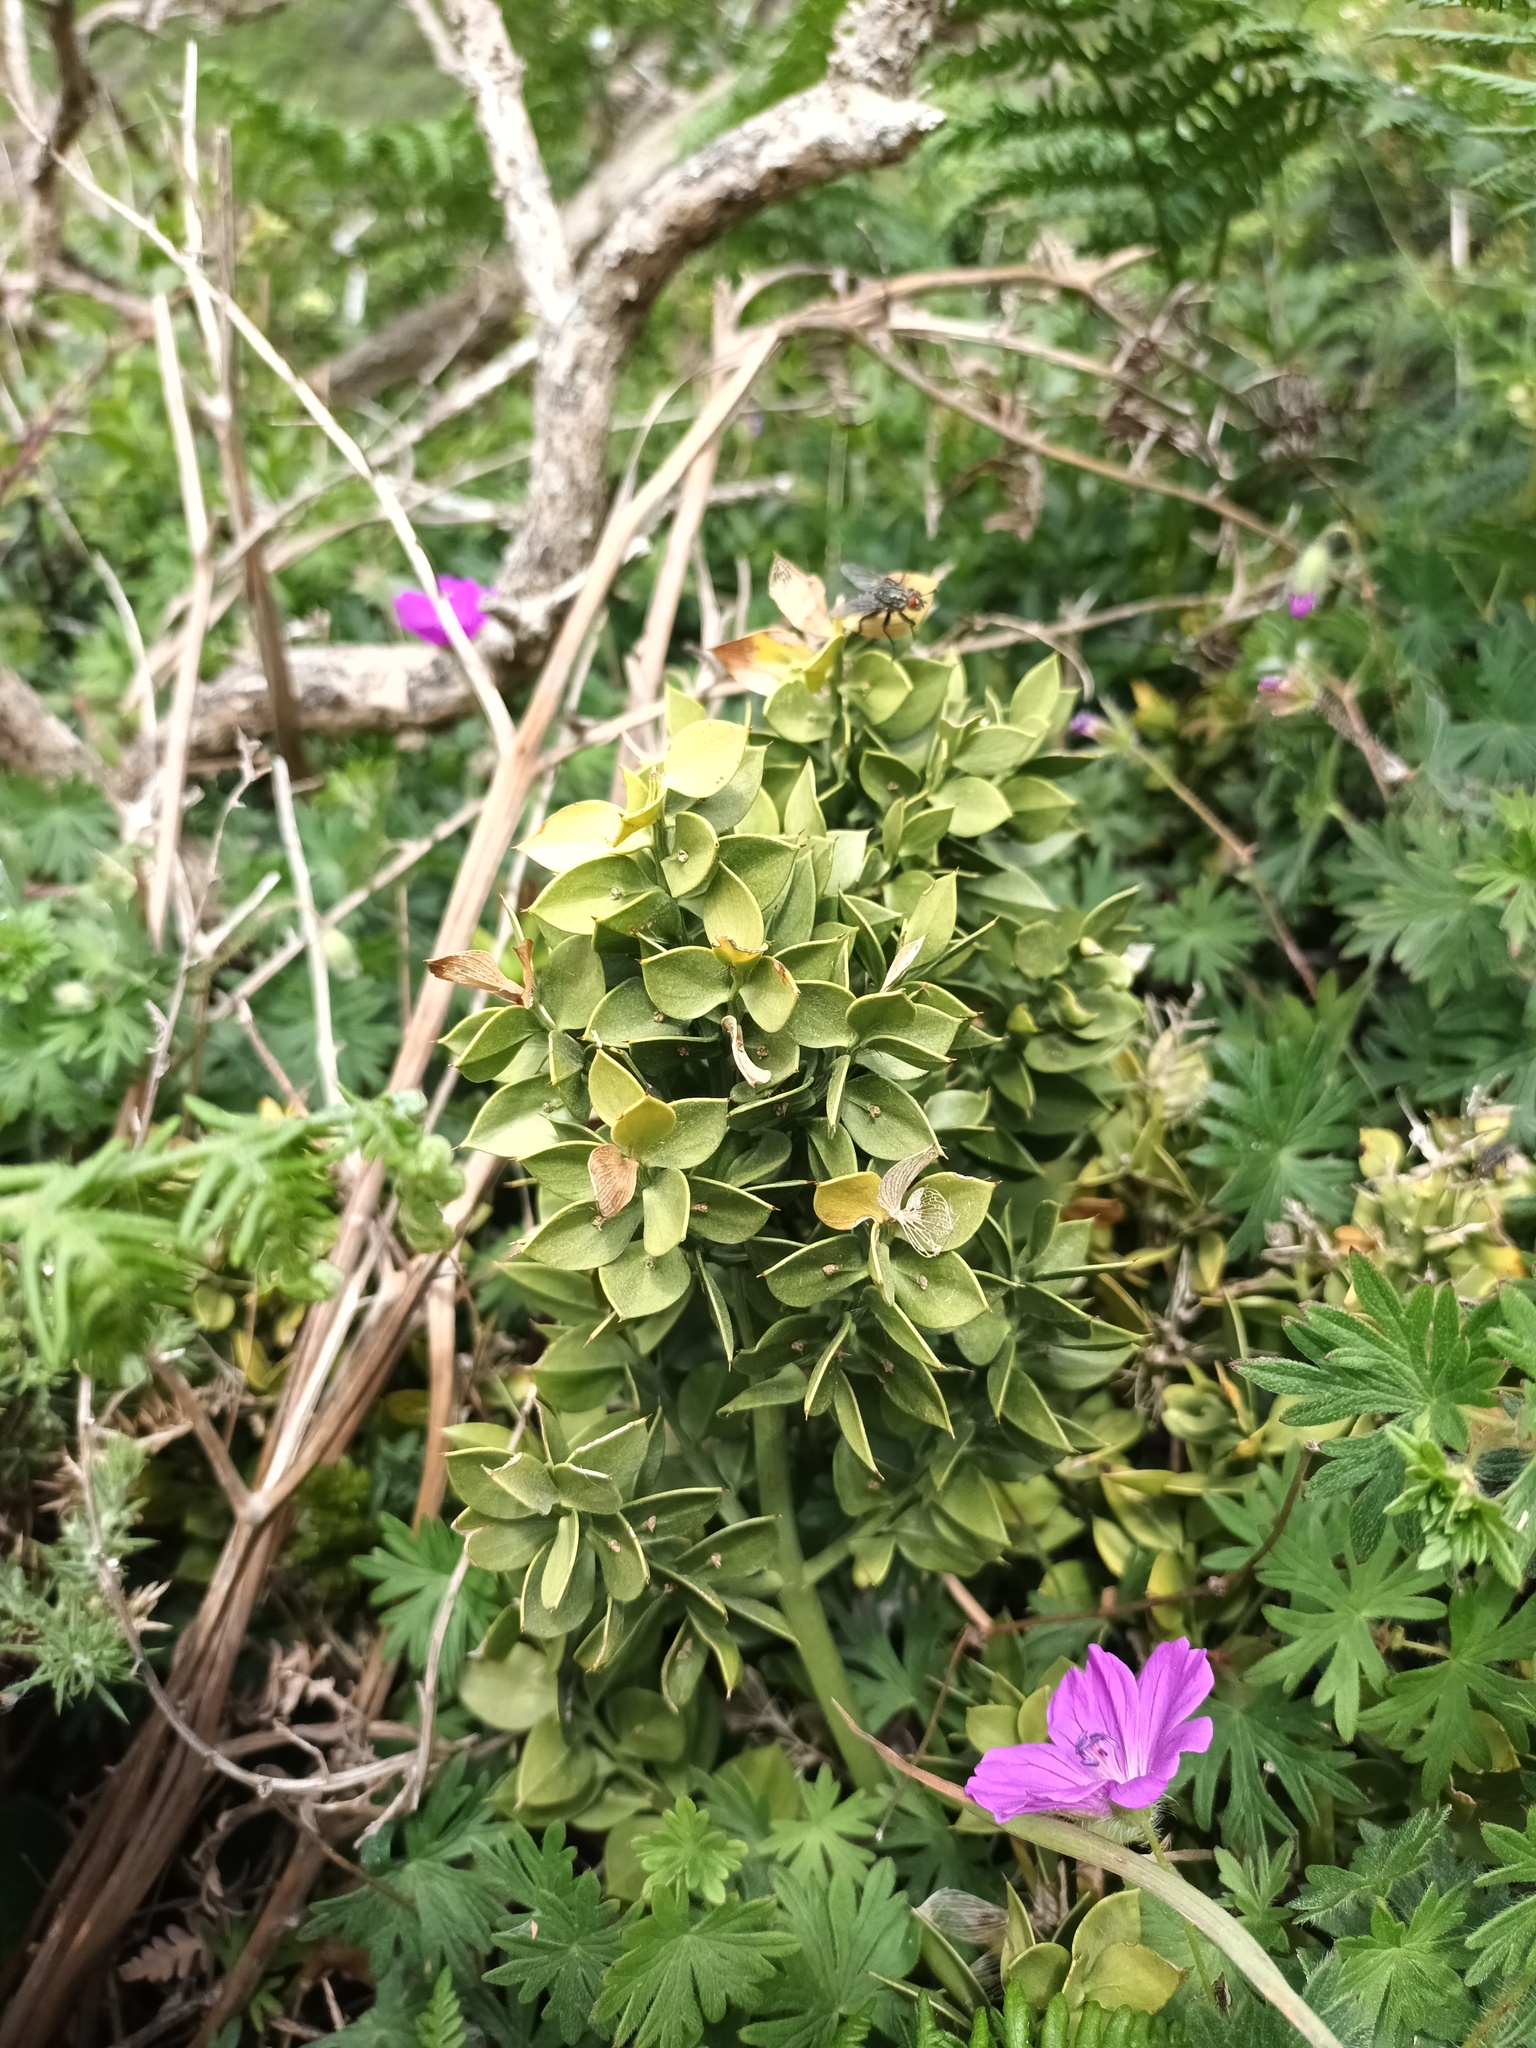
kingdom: Plantae
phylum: Tracheophyta
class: Liliopsida
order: Asparagales
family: Asparagaceae
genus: Ruscus
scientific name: Ruscus aculeatus
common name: Butcher's-broom
